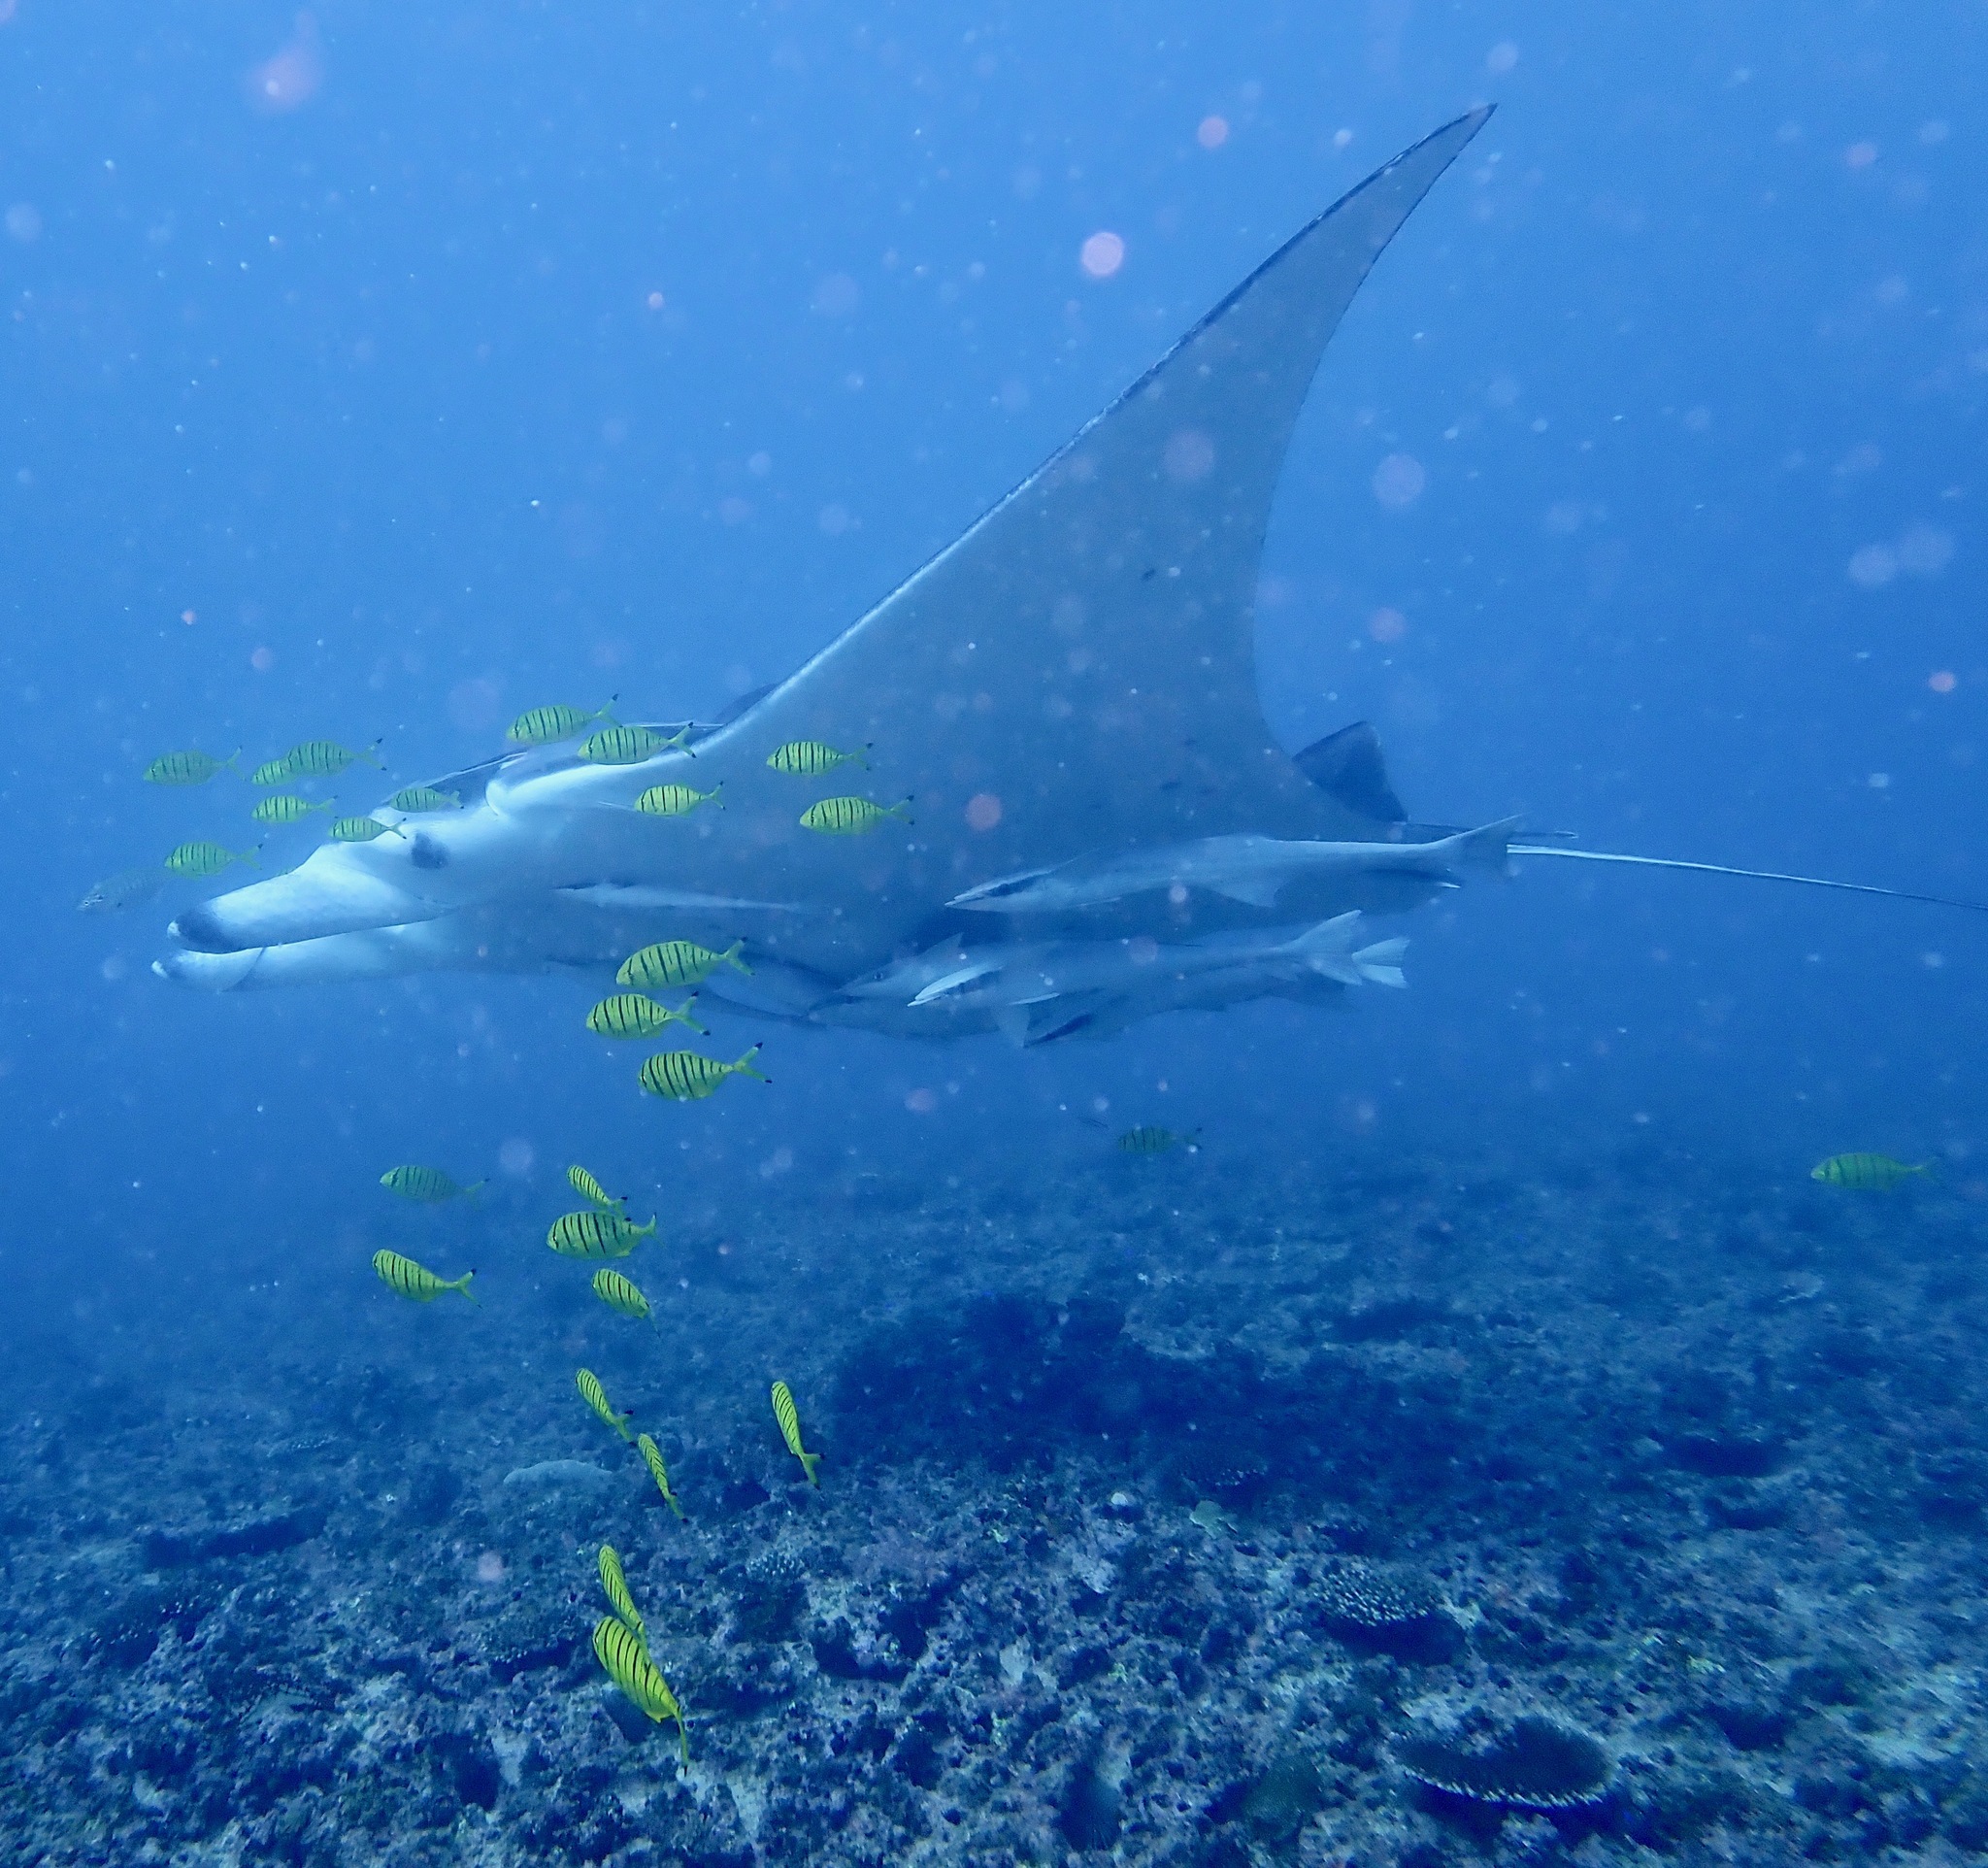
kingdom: Animalia
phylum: Chordata
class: Elasmobranchii
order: Myliobatiformes
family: Myliobatidae
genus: Mobula
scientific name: Mobula alfredi
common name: Reef manta ray
